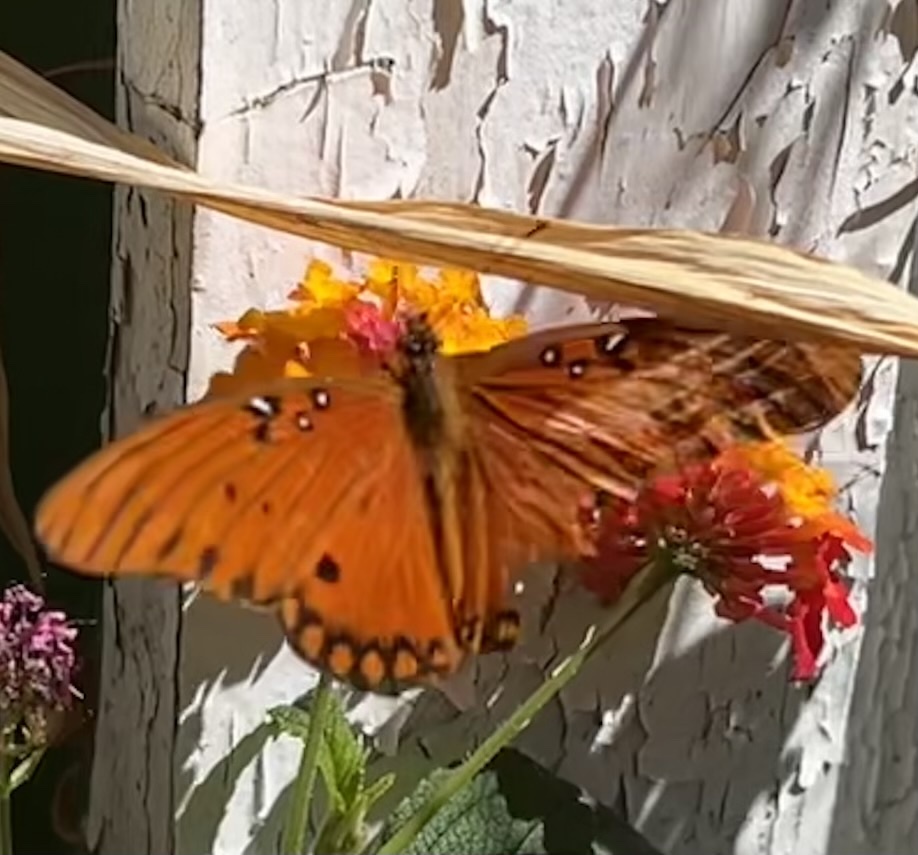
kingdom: Animalia
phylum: Arthropoda
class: Insecta
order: Lepidoptera
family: Nymphalidae
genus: Dione
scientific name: Dione vanillae
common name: Gulf fritillary
